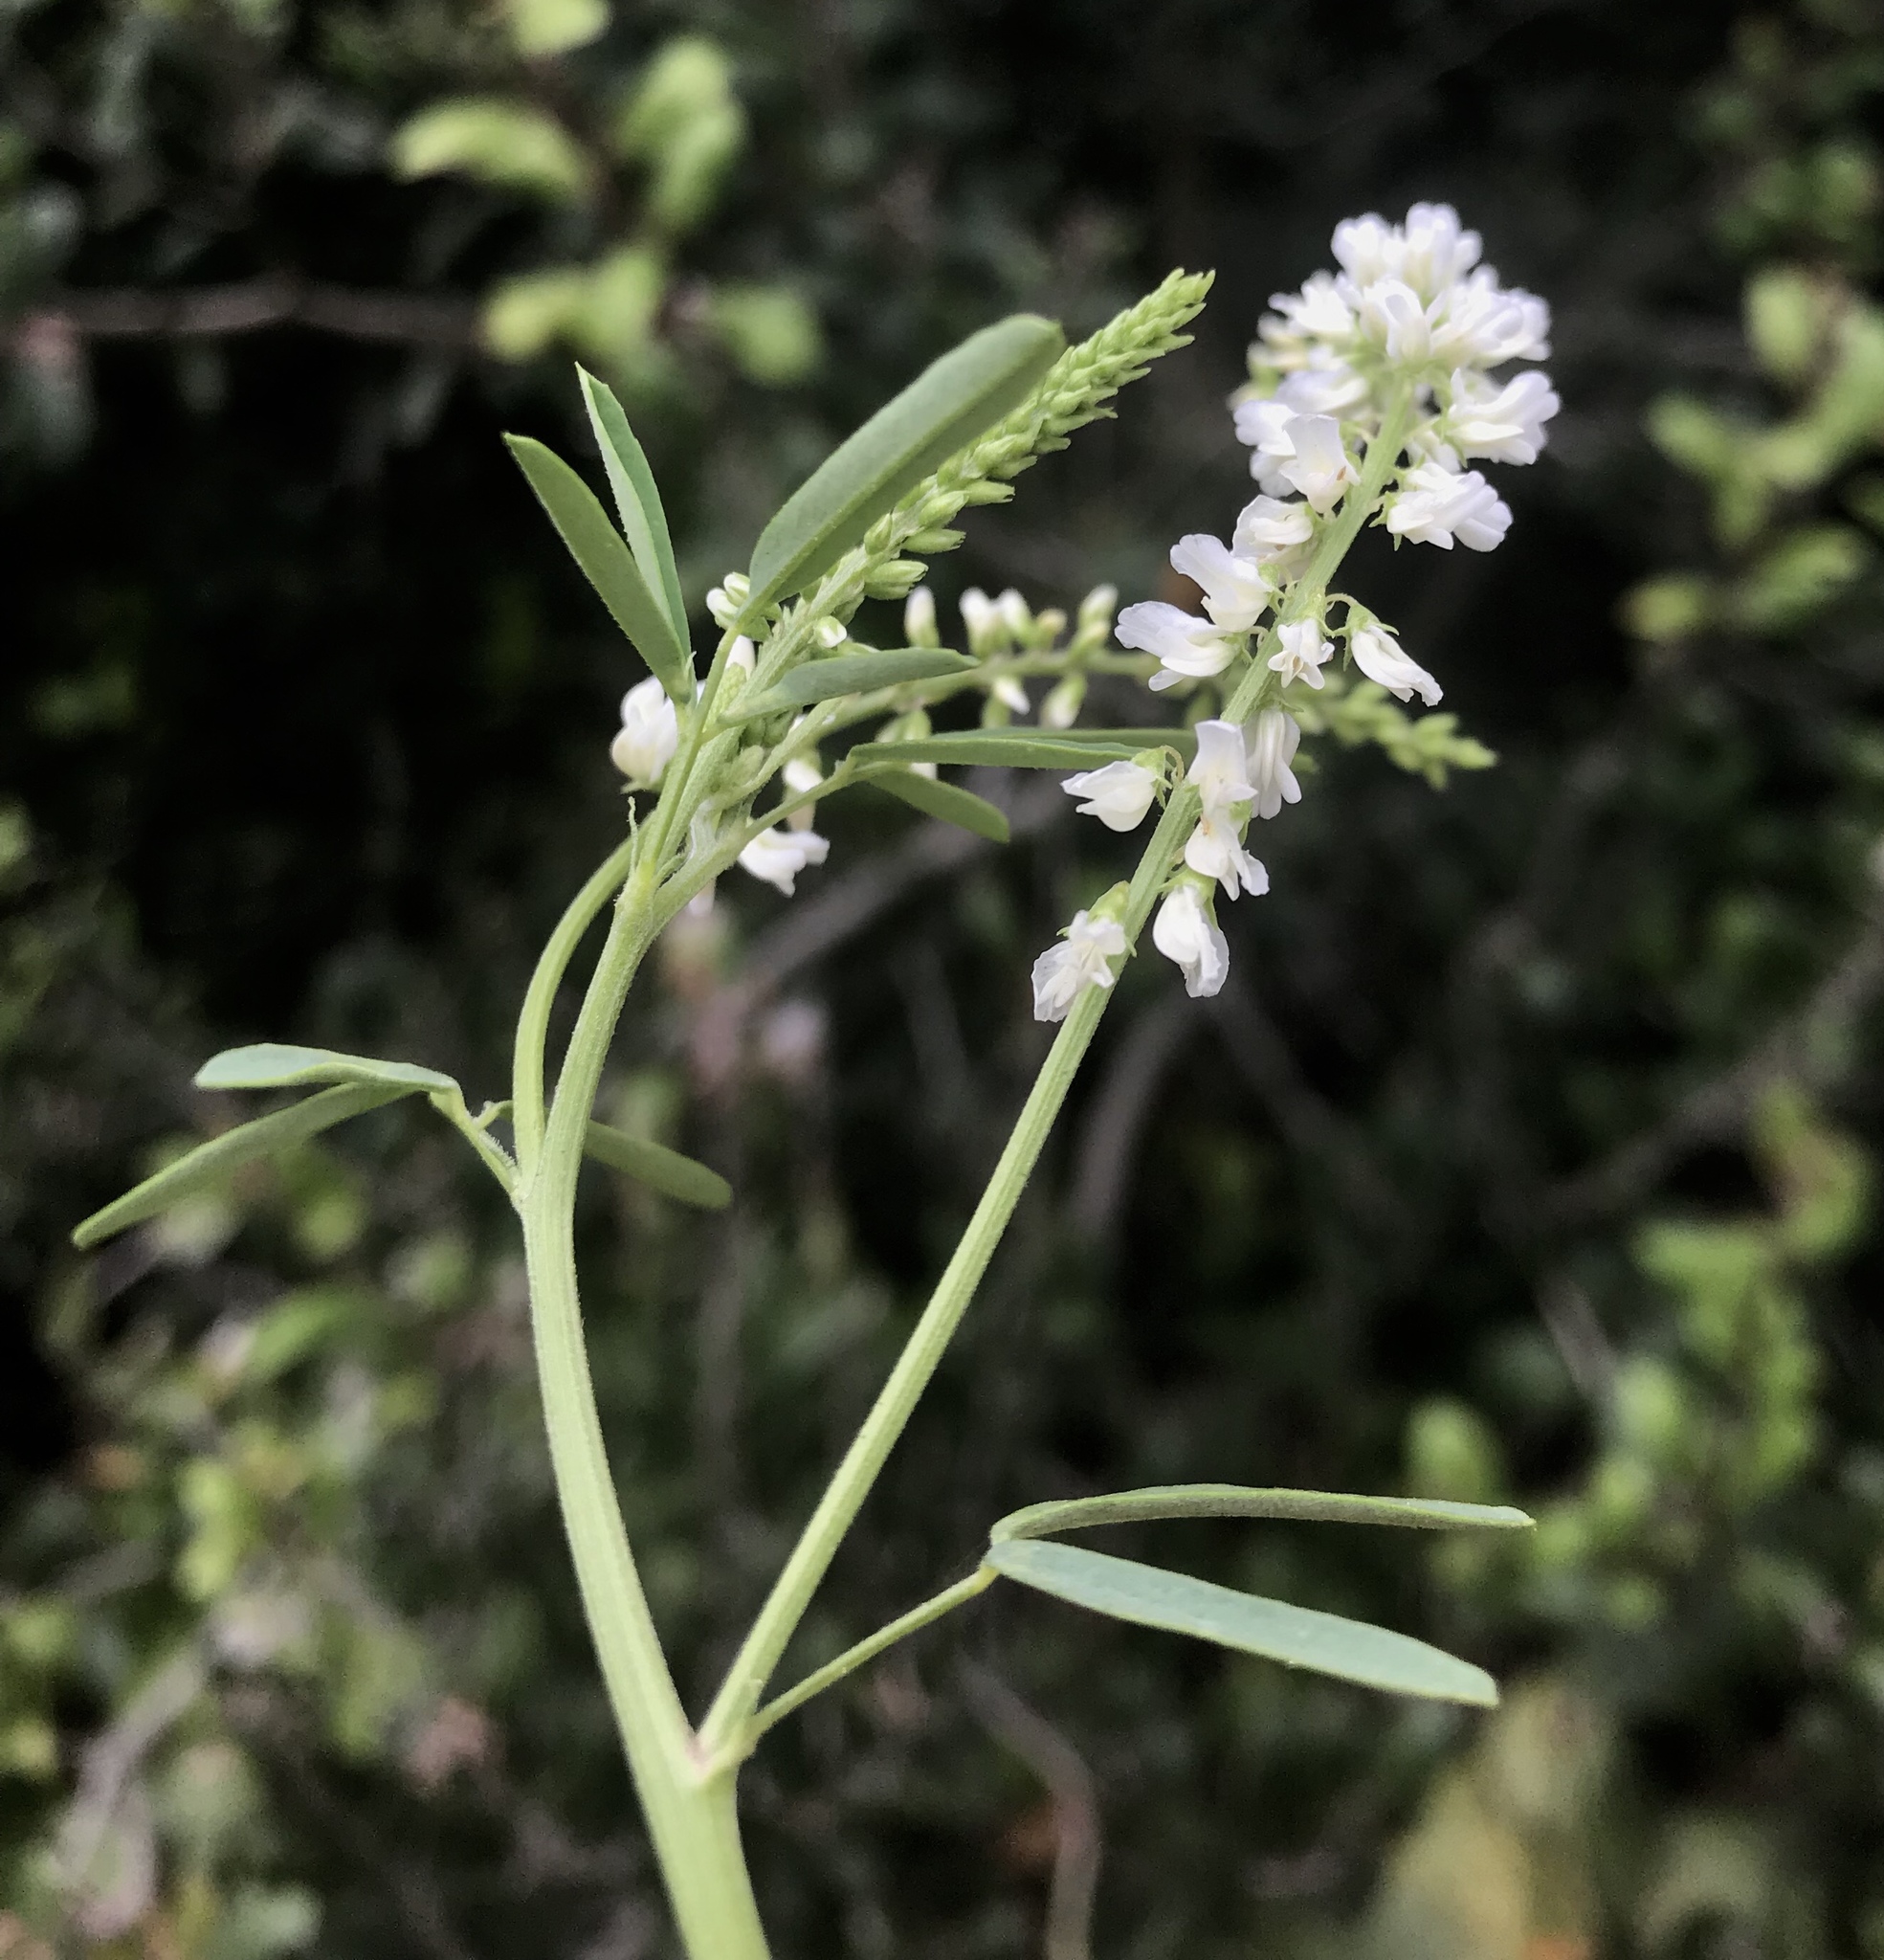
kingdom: Plantae
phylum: Tracheophyta
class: Magnoliopsida
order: Fabales
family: Fabaceae
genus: Melilotus
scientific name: Melilotus albus
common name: White melilot
